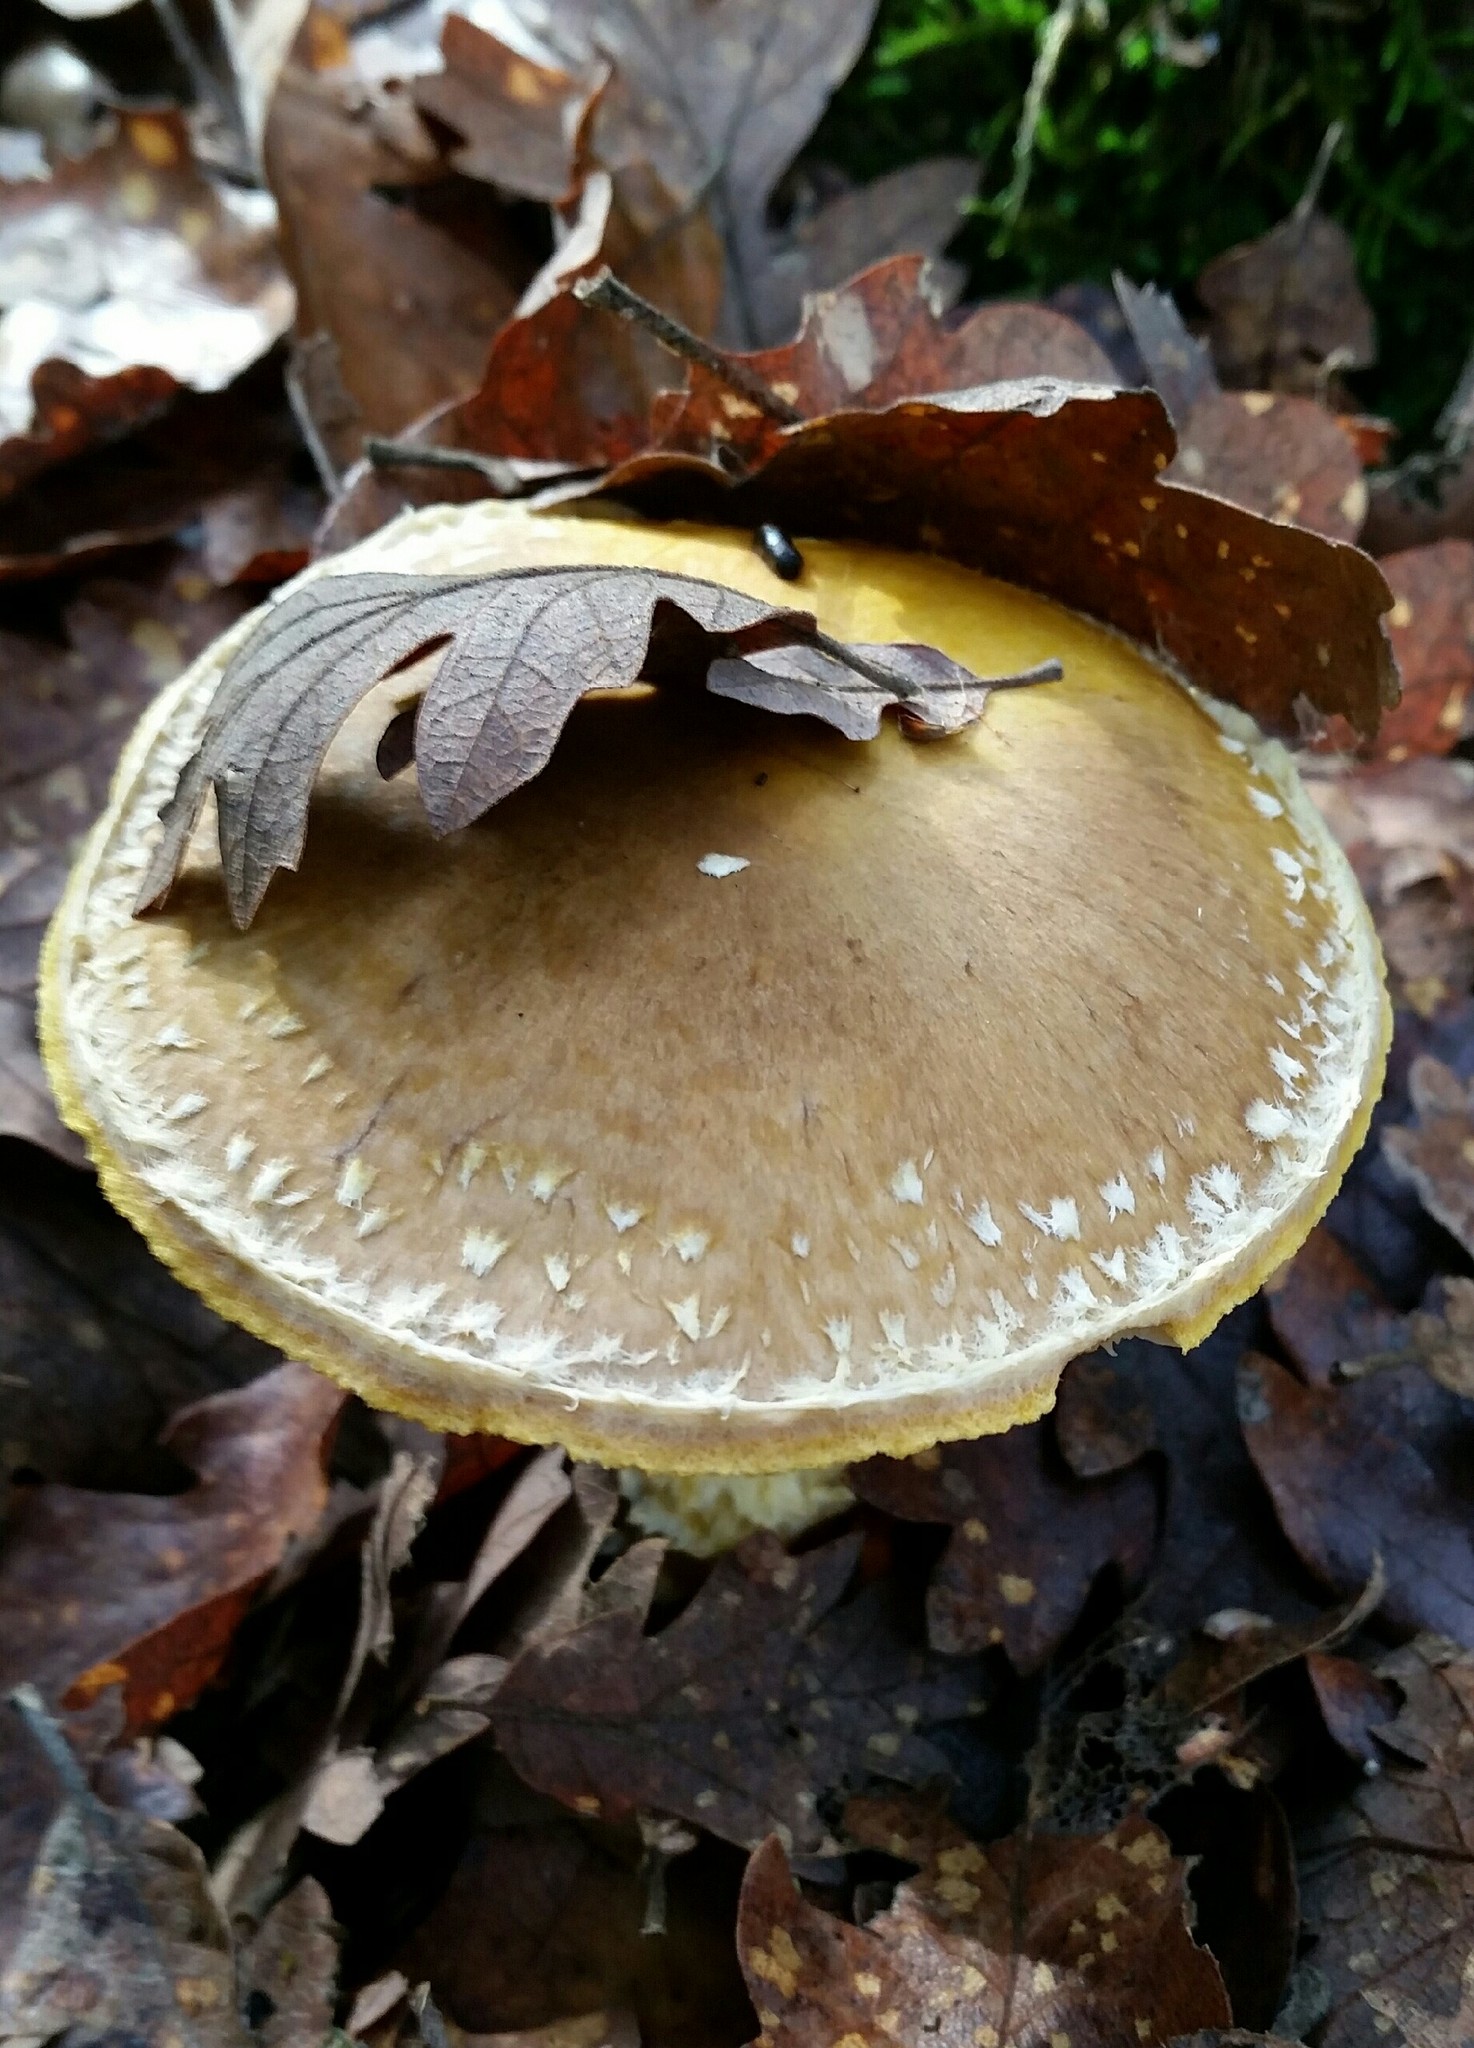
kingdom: Fungi
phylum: Basidiomycota
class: Agaricomycetes
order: Agaricales
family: Agaricaceae
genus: Floccularia
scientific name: Floccularia albolanaripes
